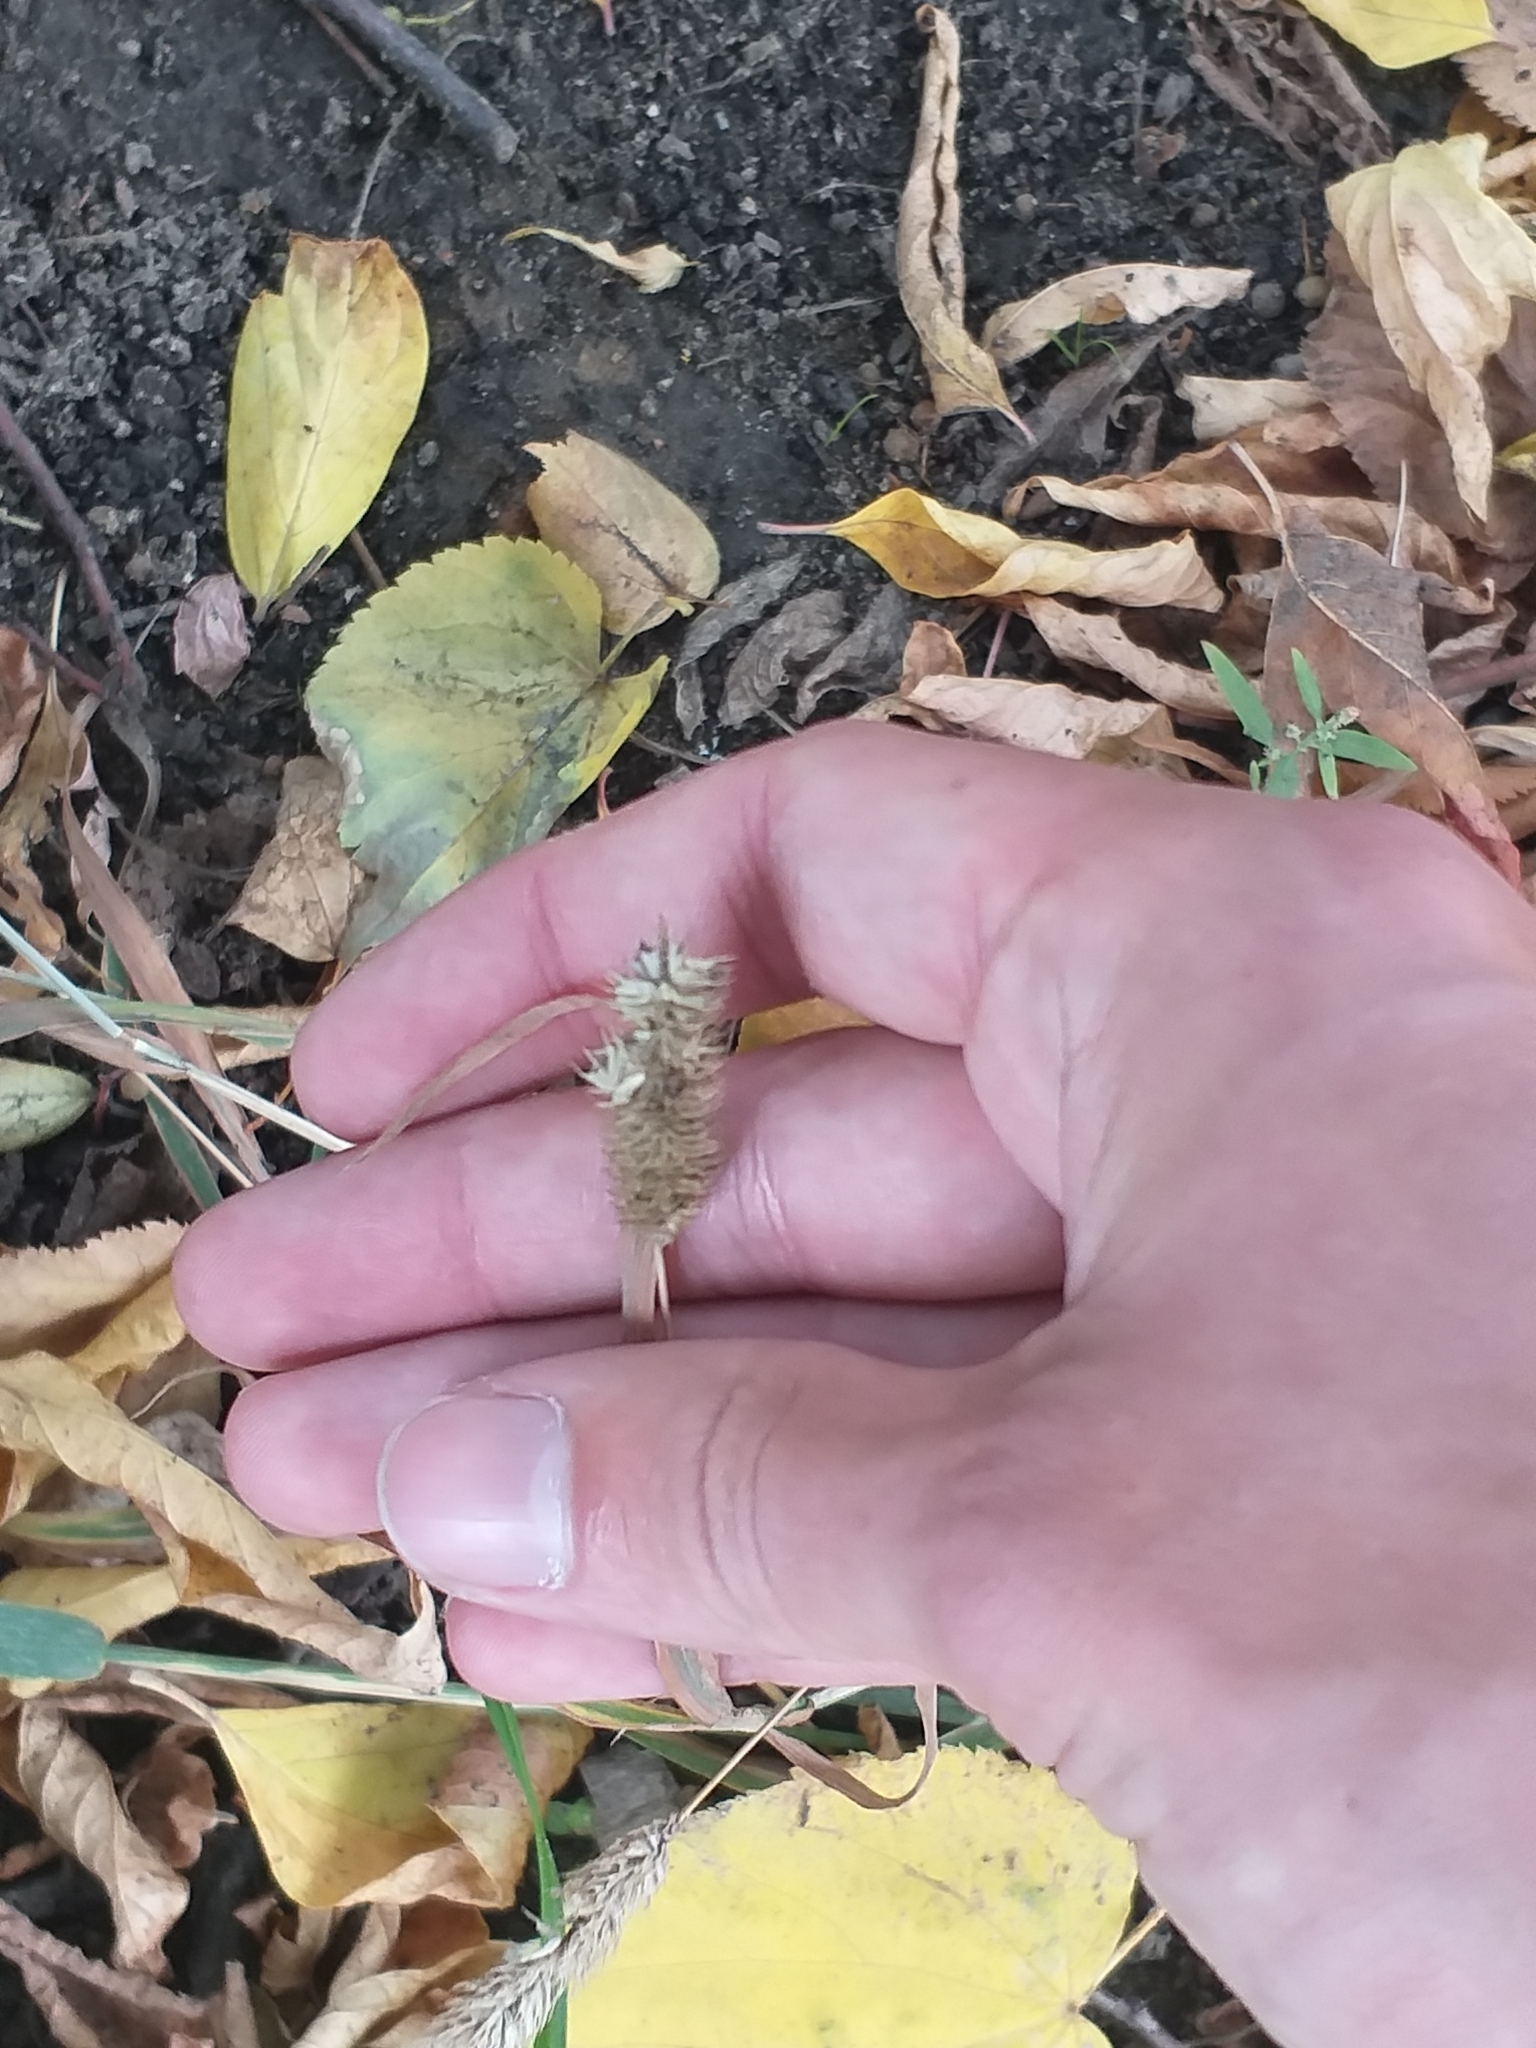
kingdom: Plantae
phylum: Tracheophyta
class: Liliopsida
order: Poales
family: Poaceae
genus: Phleum
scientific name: Phleum pratense
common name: Timothy grass
